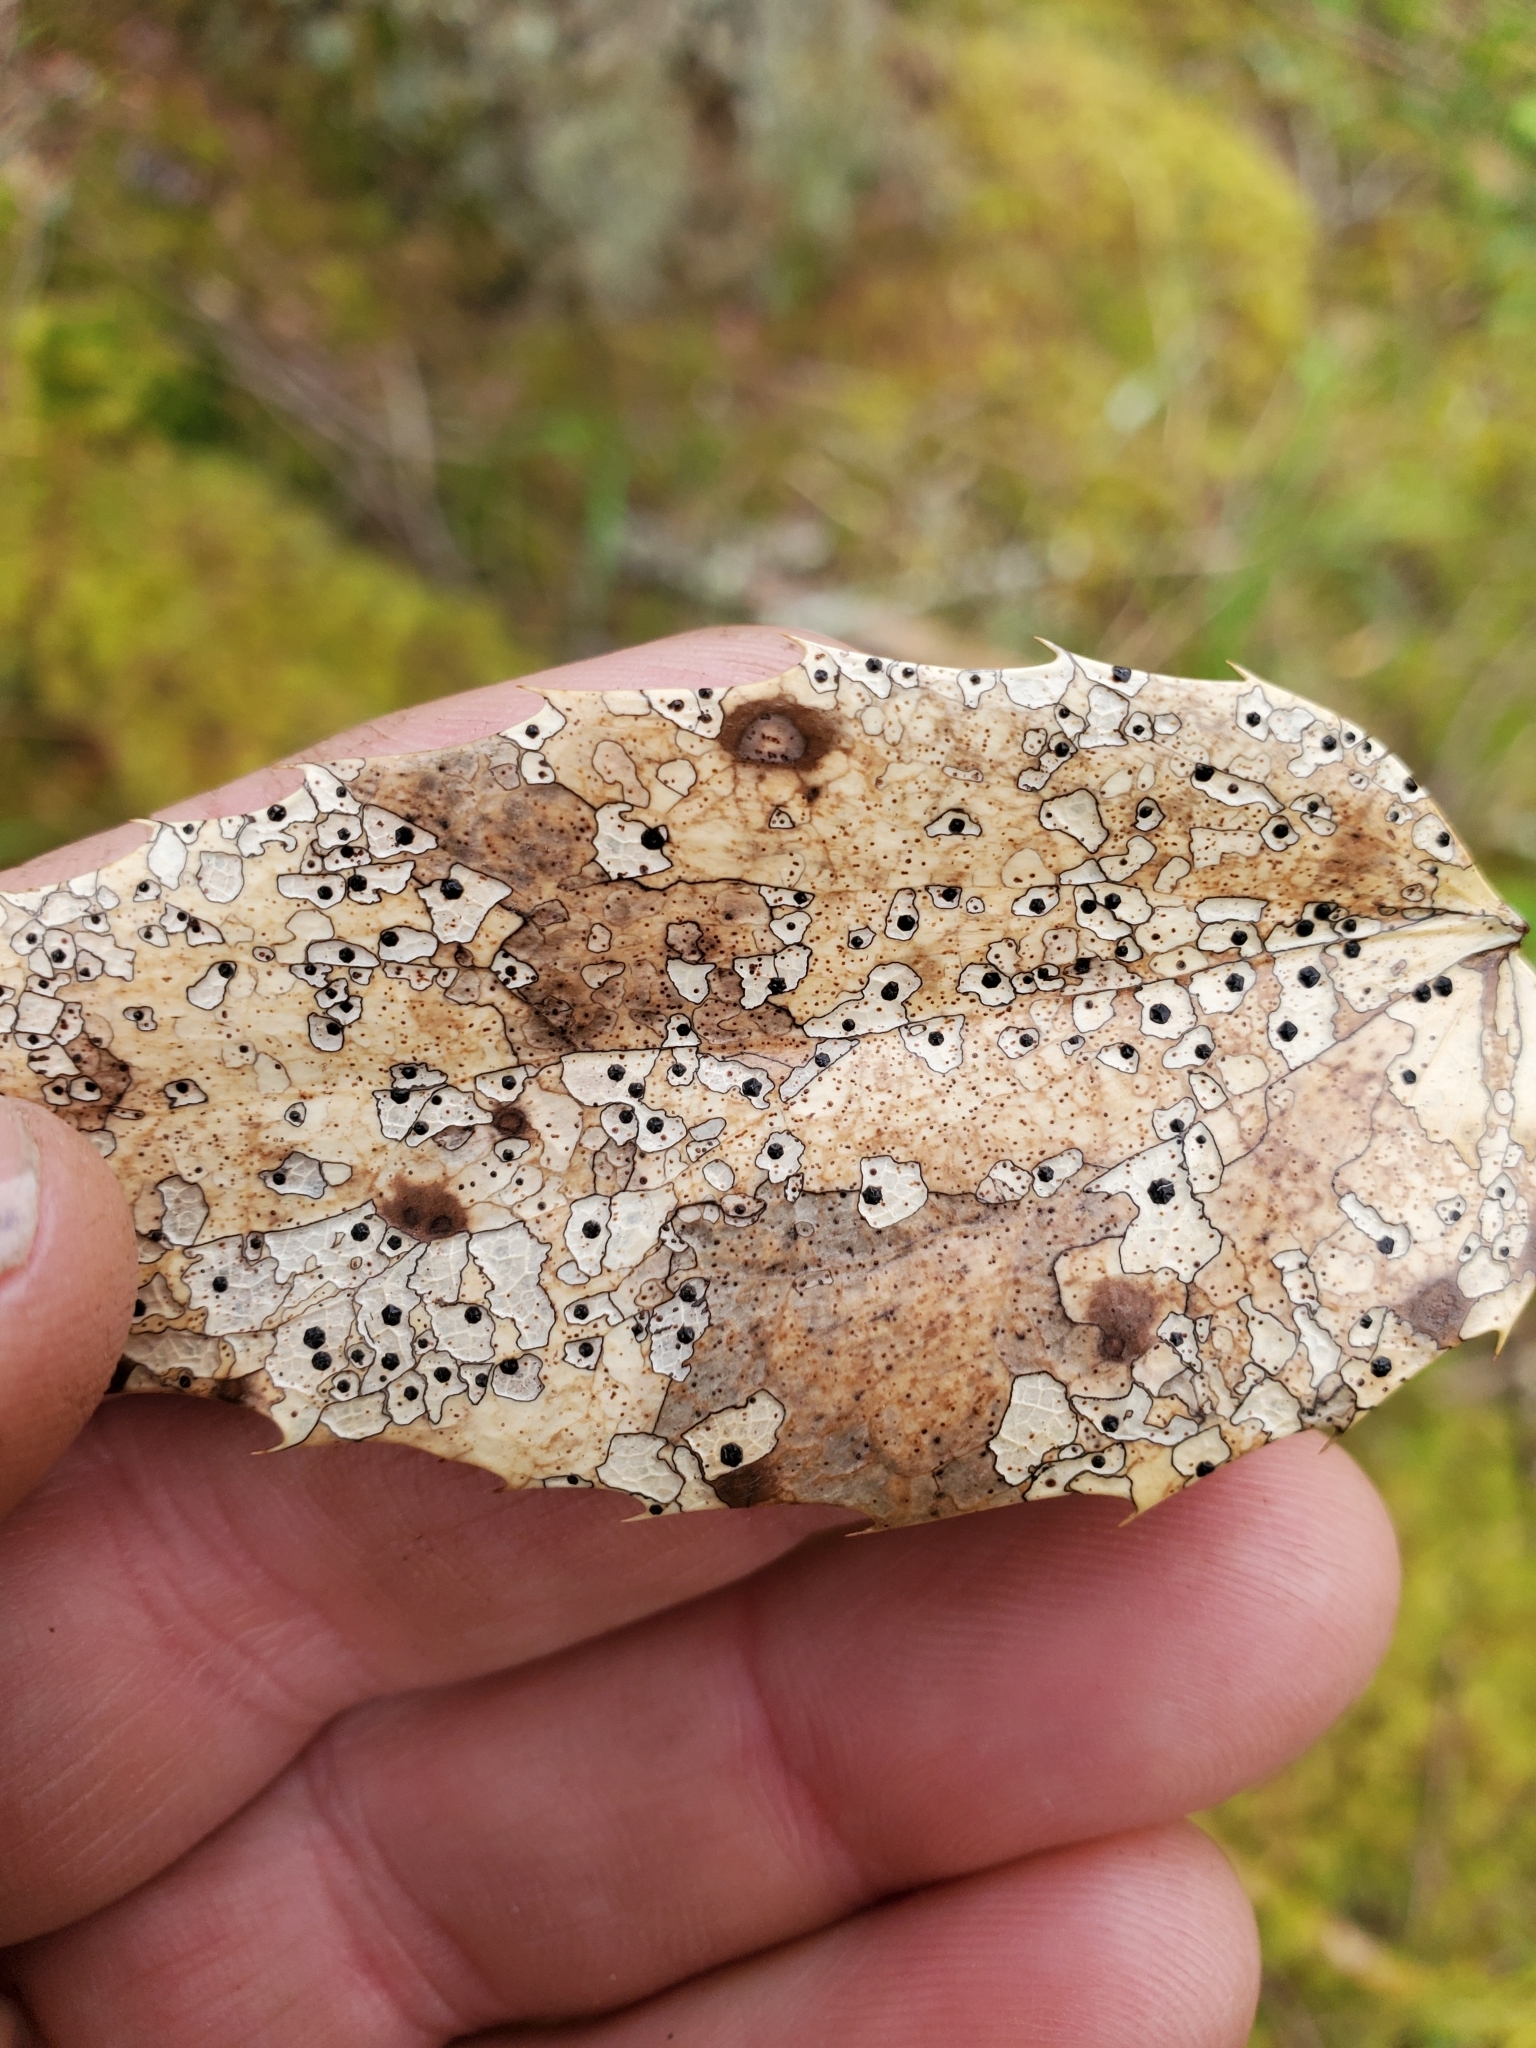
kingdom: Fungi
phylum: Ascomycota
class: Leotiomycetes
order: Rhytismatales
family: Rhytismataceae
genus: Coccomyces
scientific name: Coccomyces dentatus
